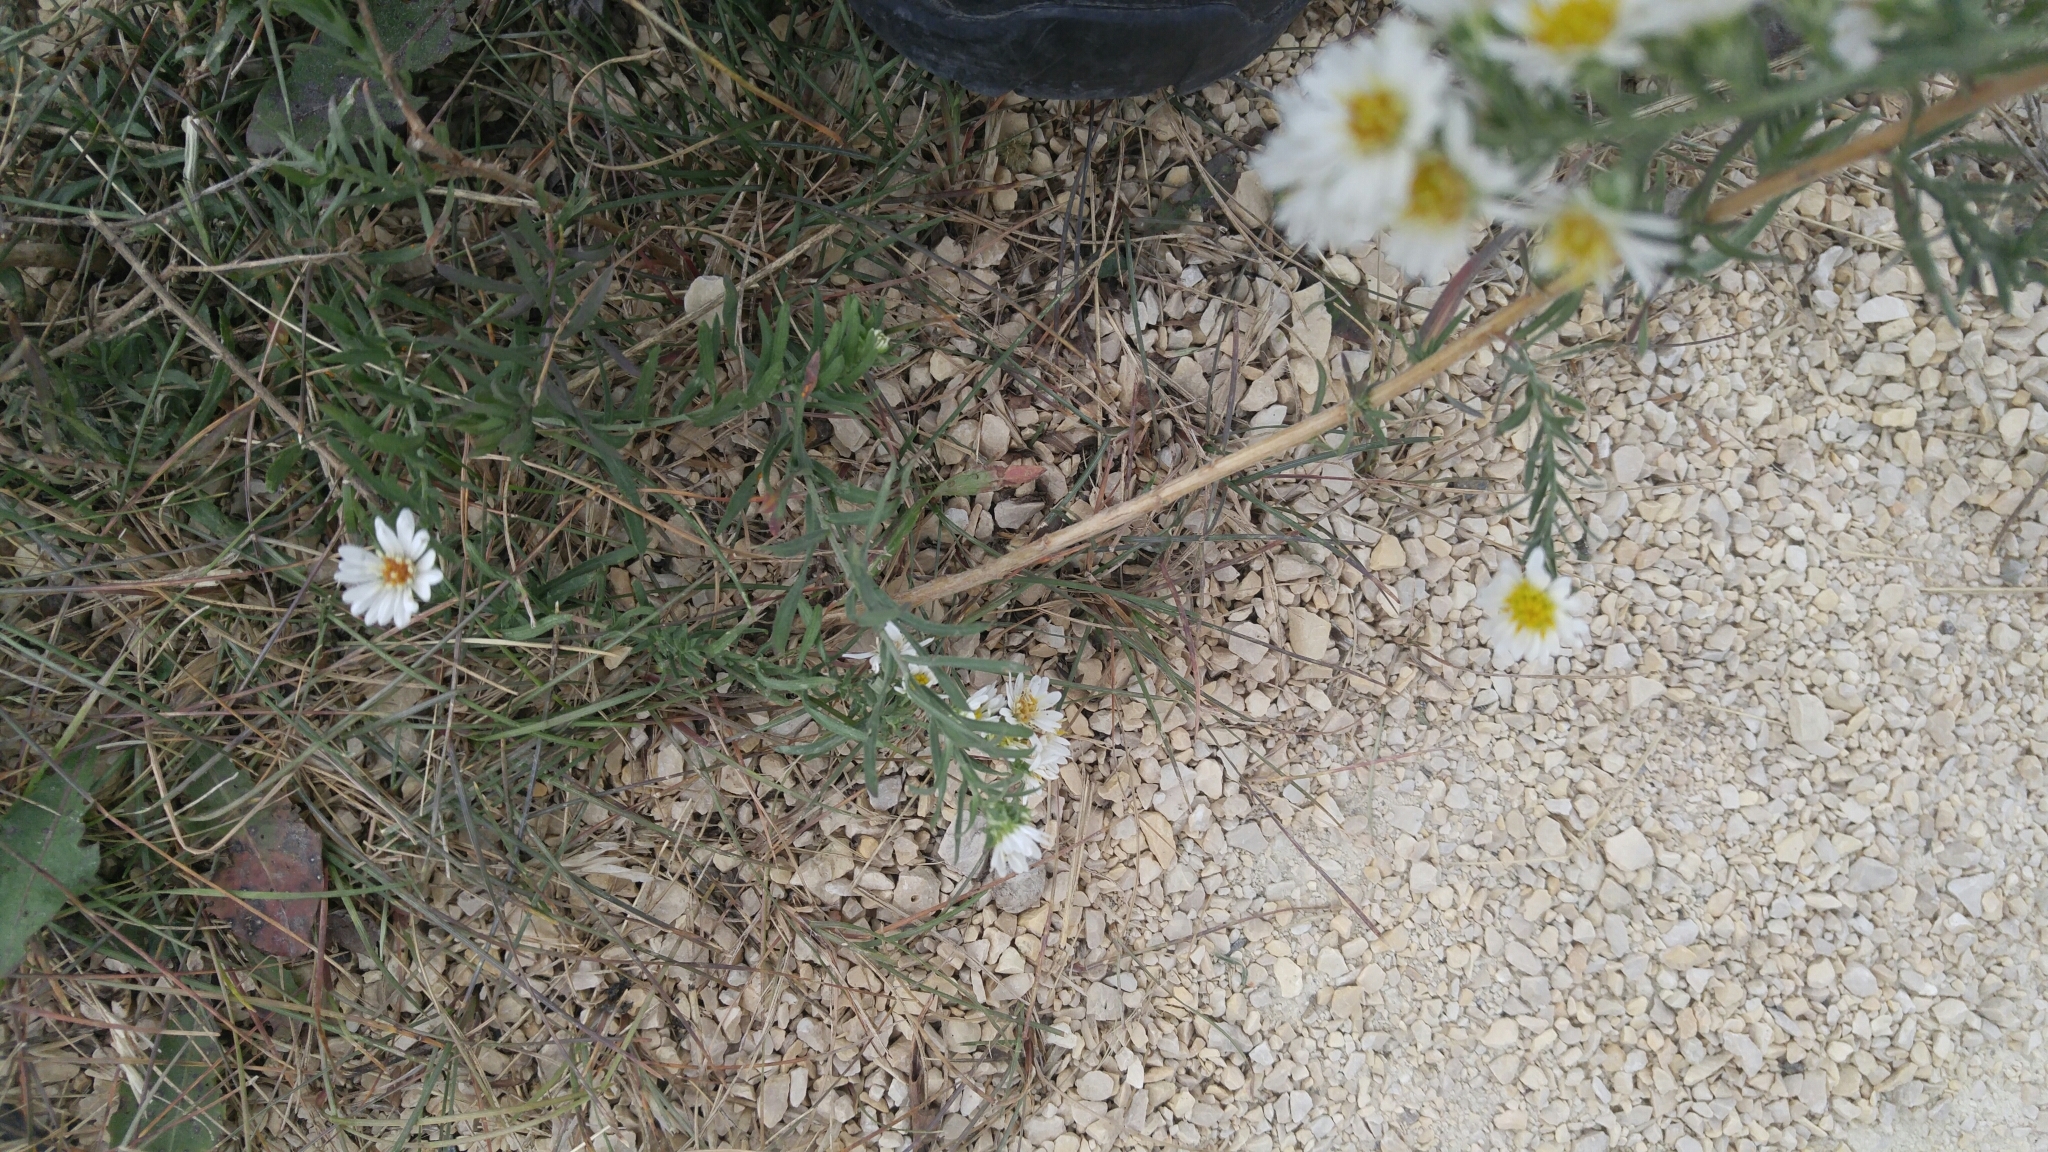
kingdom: Plantae
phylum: Tracheophyta
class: Magnoliopsida
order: Asterales
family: Asteraceae
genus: Symphyotrichum
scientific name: Symphyotrichum ericoides
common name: Heath aster
